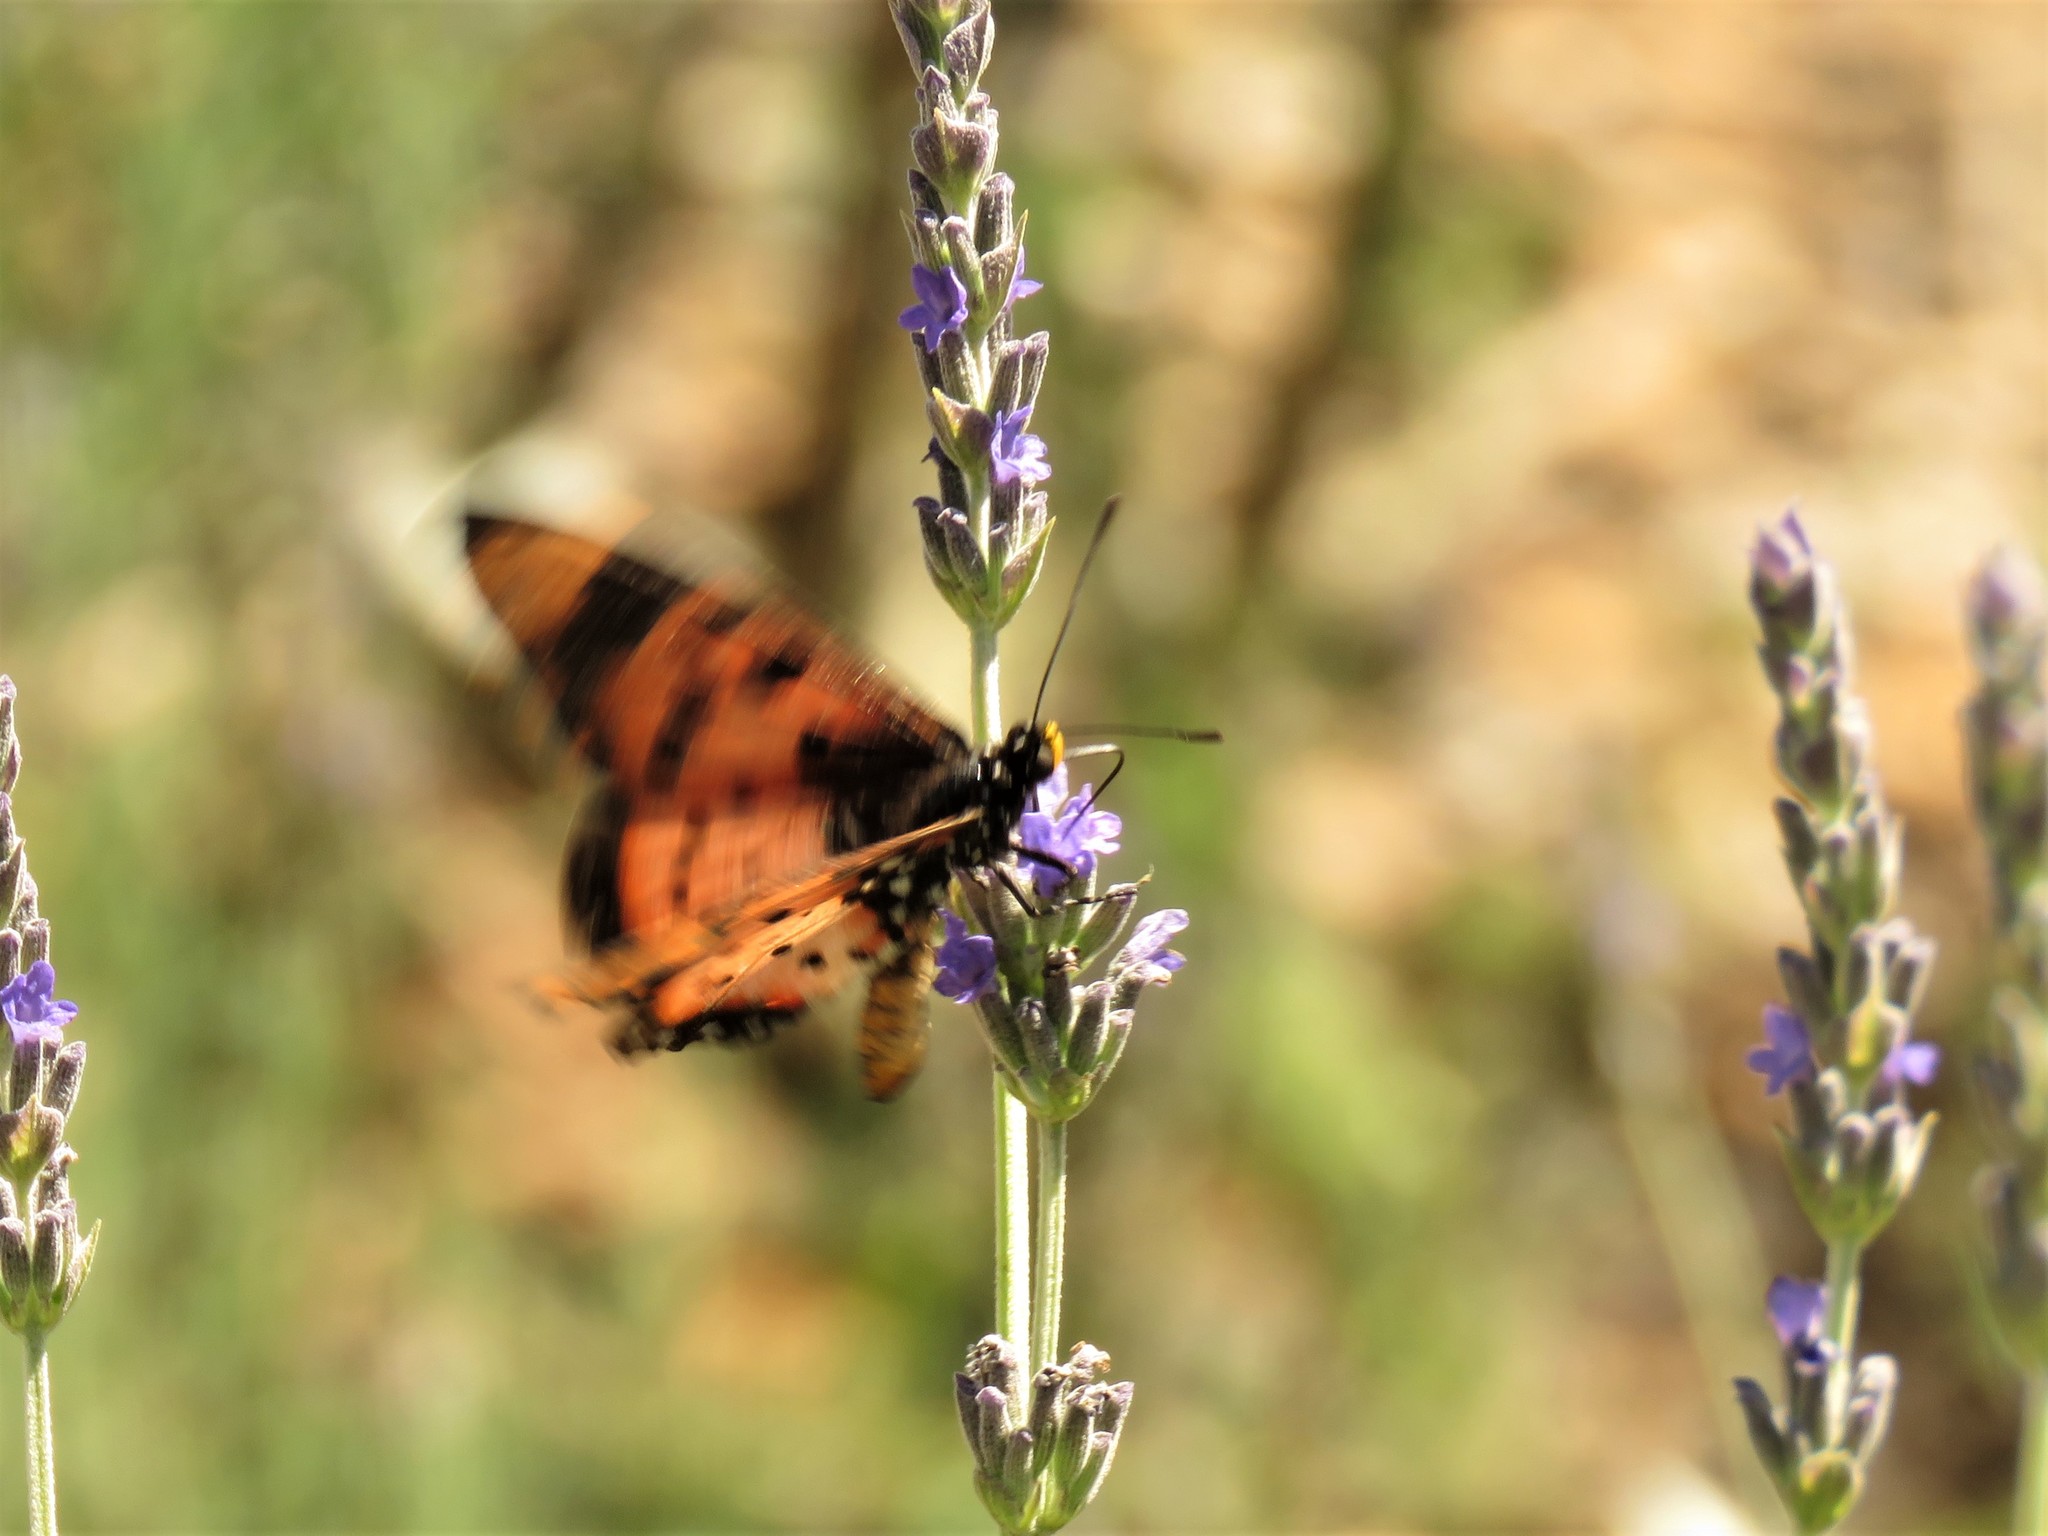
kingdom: Animalia
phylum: Arthropoda
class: Insecta
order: Lepidoptera
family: Nymphalidae
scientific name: Nymphalidae
